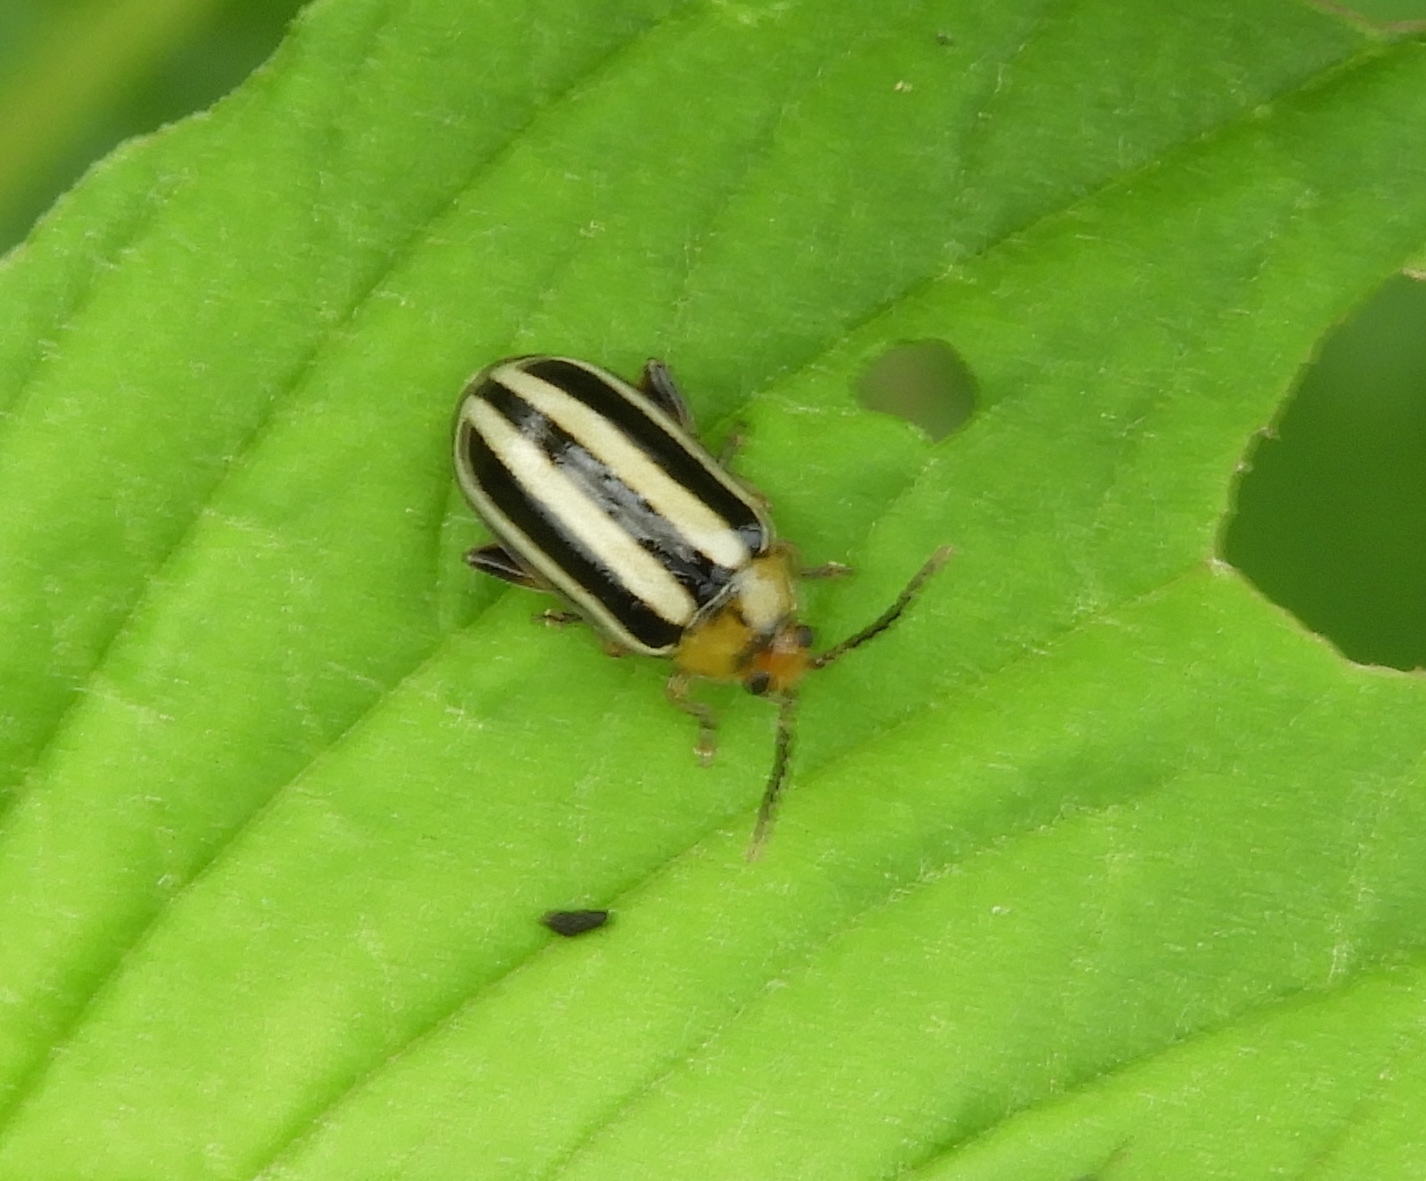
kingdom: Animalia
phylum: Arthropoda
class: Insecta
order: Coleoptera
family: Chrysomelidae
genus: Disonycha
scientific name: Disonycha glabrata
